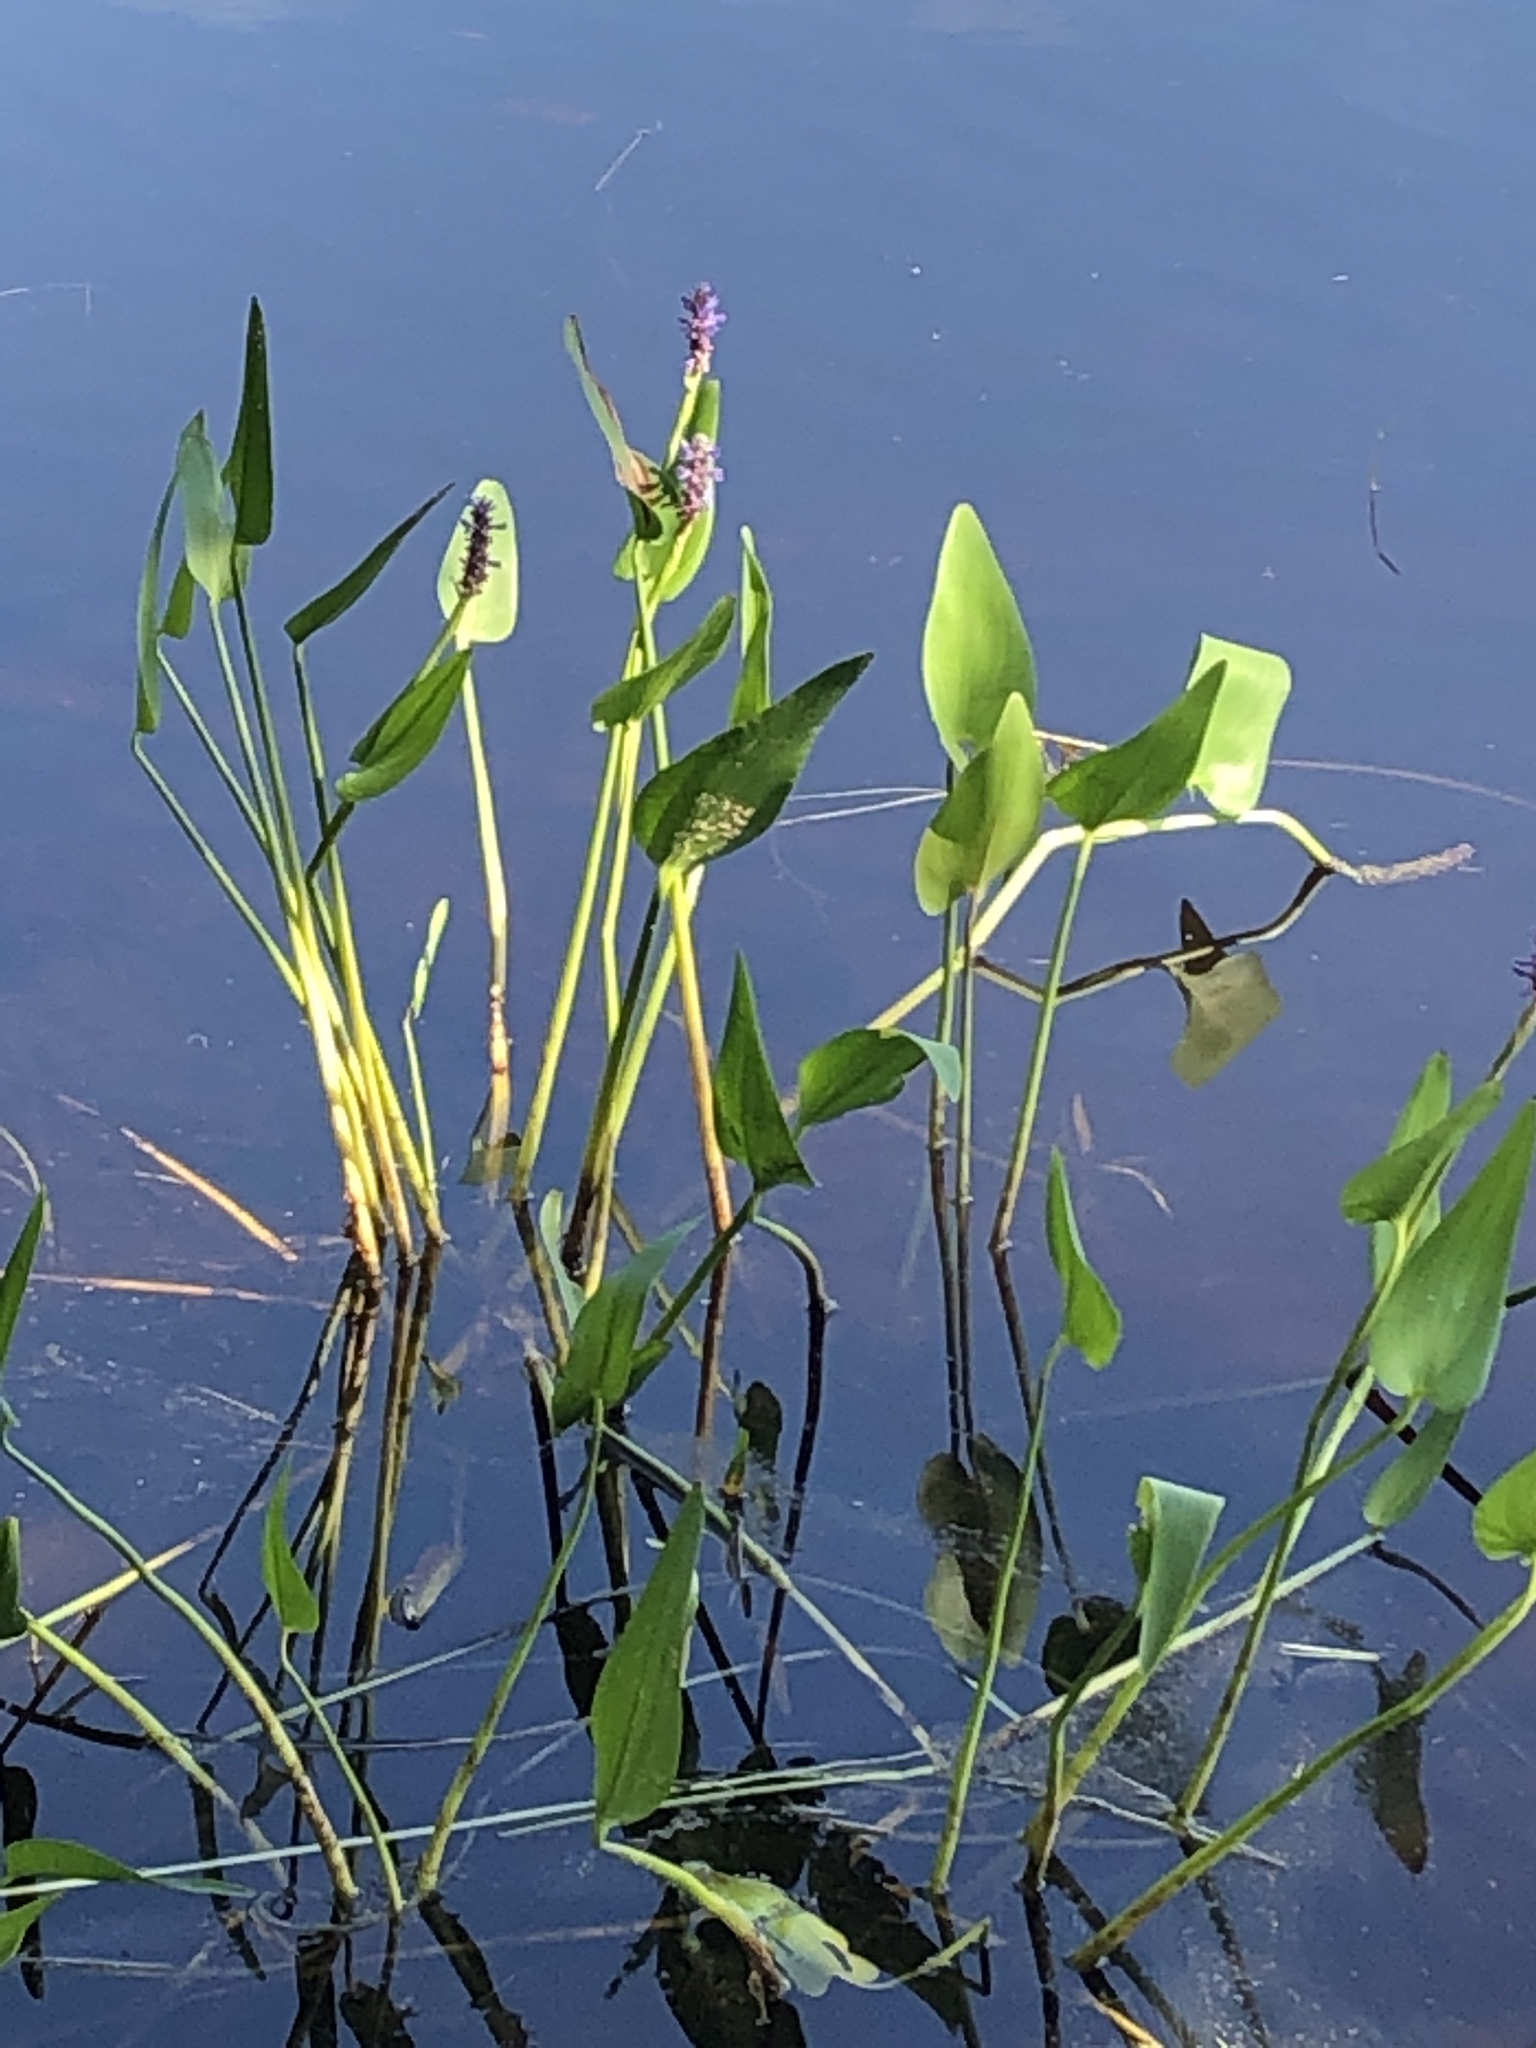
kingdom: Plantae
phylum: Tracheophyta
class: Liliopsida
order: Commelinales
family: Pontederiaceae
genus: Pontederia
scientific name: Pontederia cordata
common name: Pickerelweed
